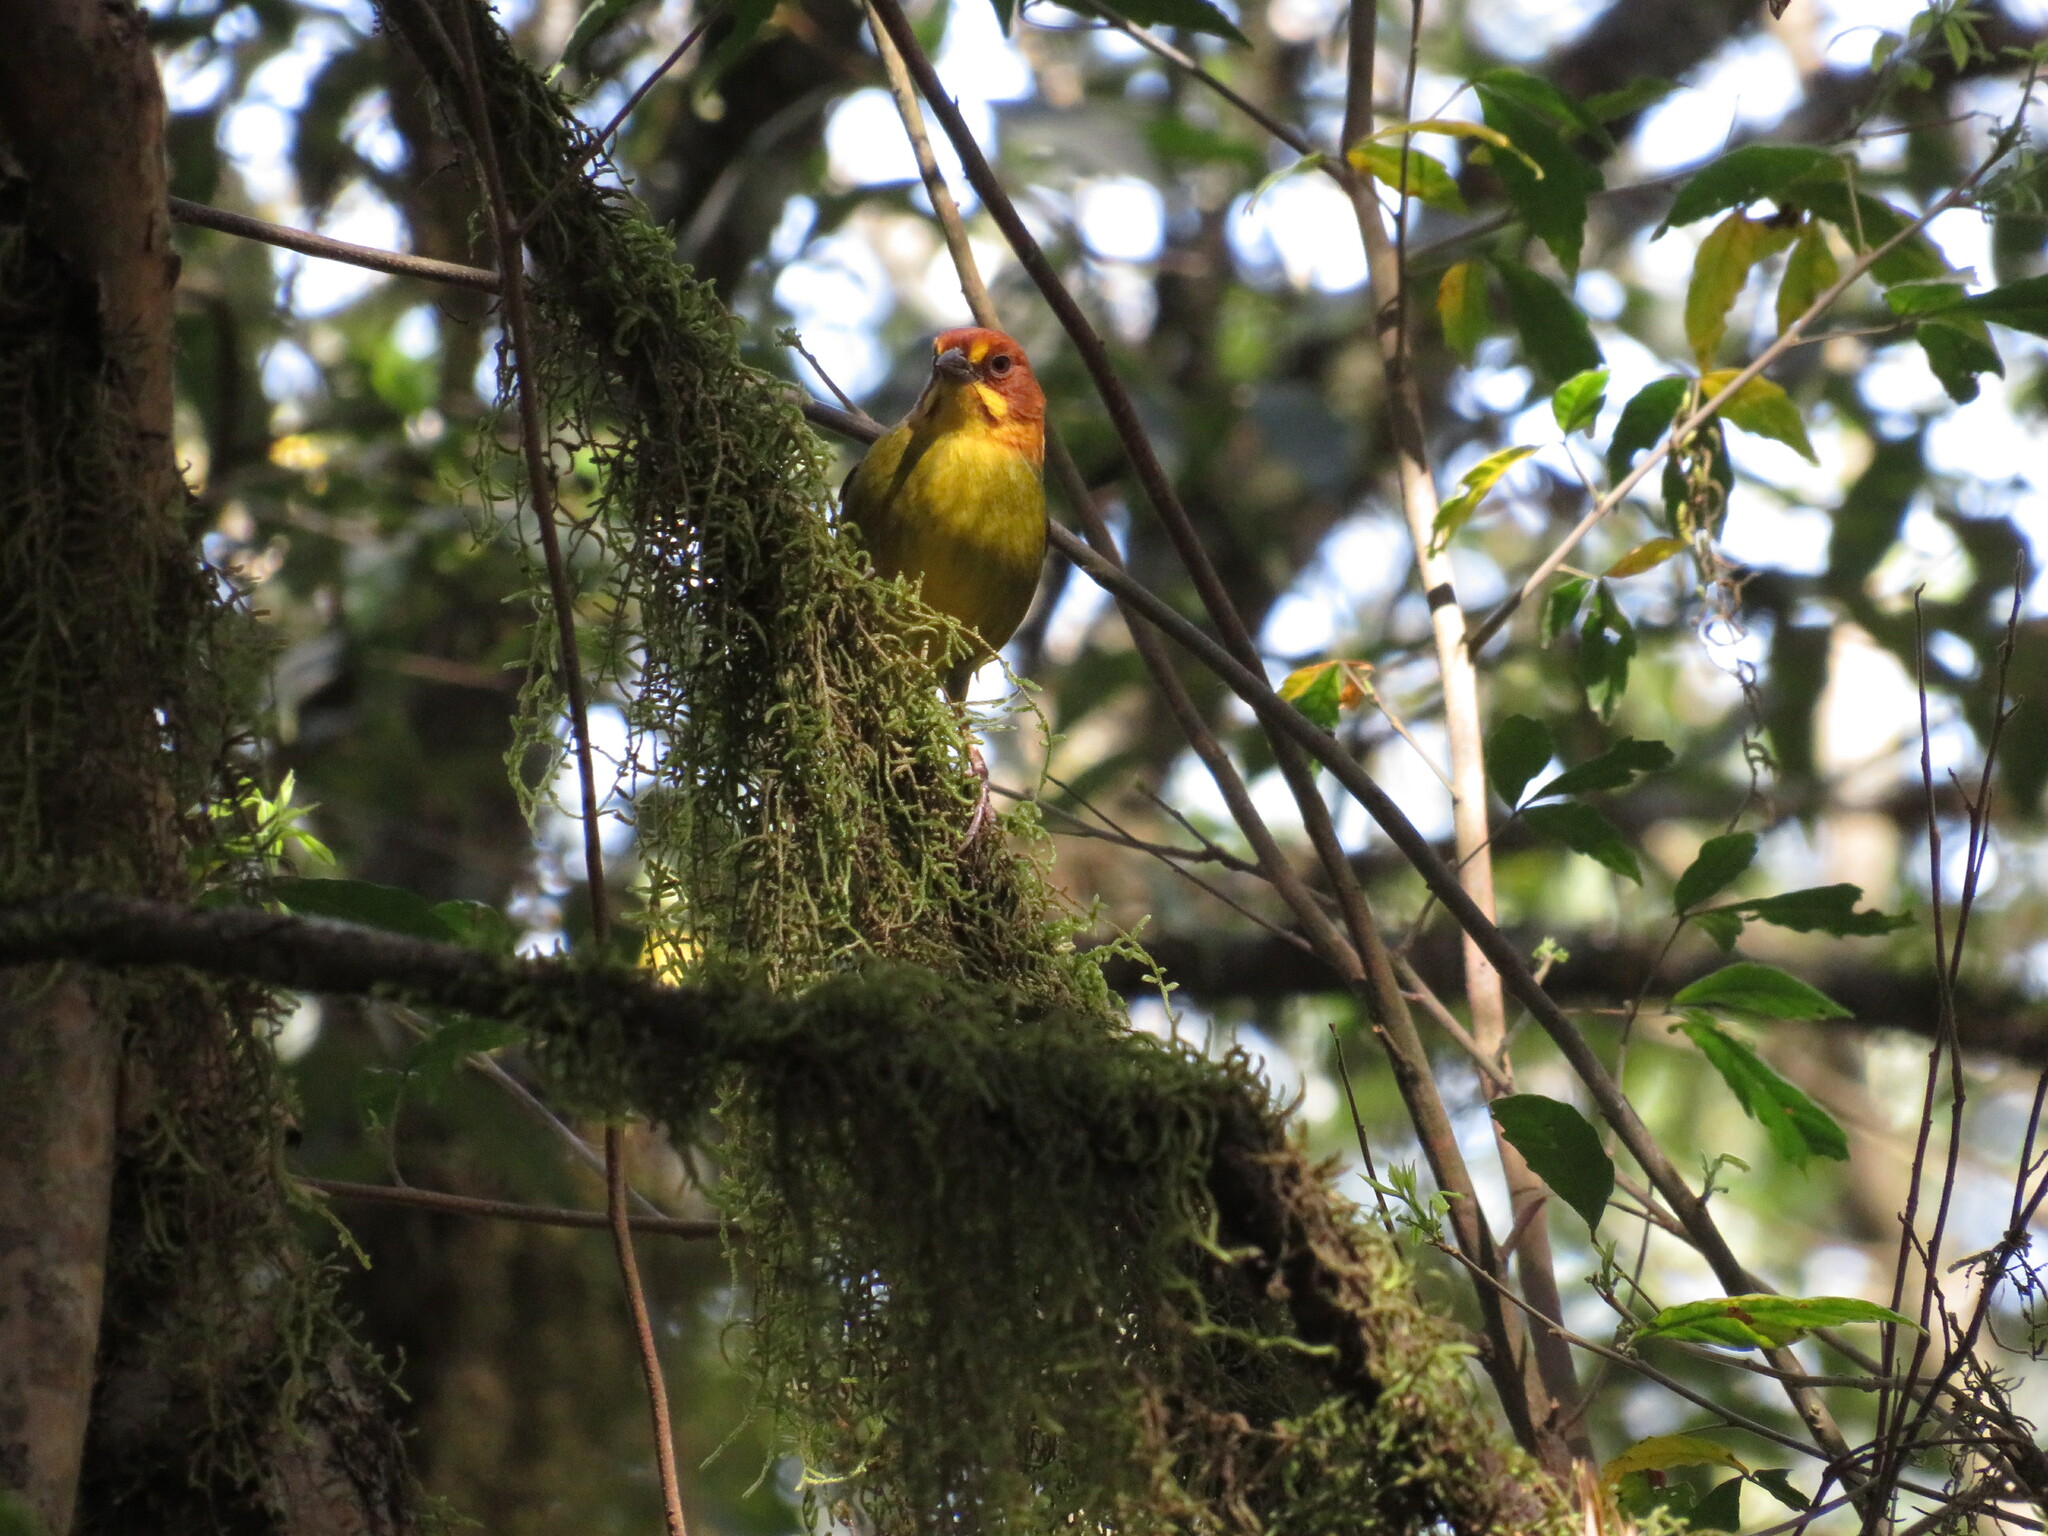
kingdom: Animalia
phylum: Chordata
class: Aves
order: Passeriformes
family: Passerellidae
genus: Atlapetes
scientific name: Atlapetes fulviceps
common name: Fulvous-headed brushfinch
